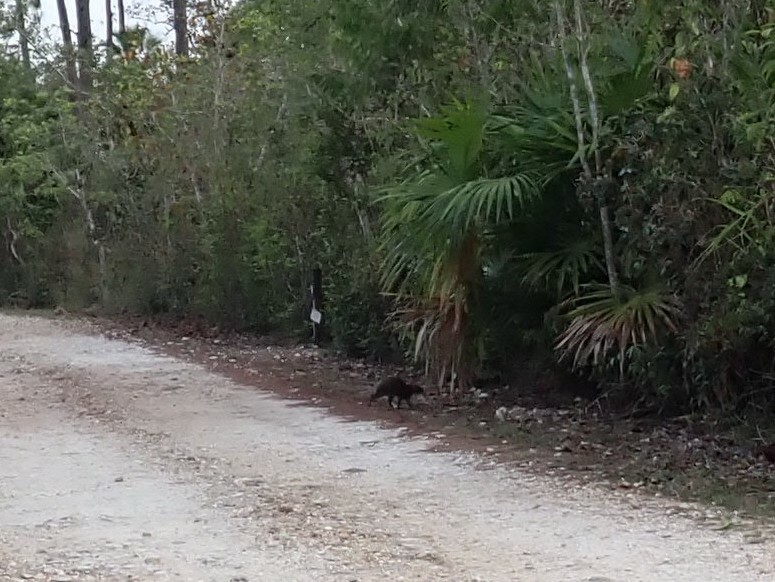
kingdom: Animalia
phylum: Chordata
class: Mammalia
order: Rodentia
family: Dasyproctidae
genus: Dasyprocta
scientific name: Dasyprocta punctata
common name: Central american agouti
